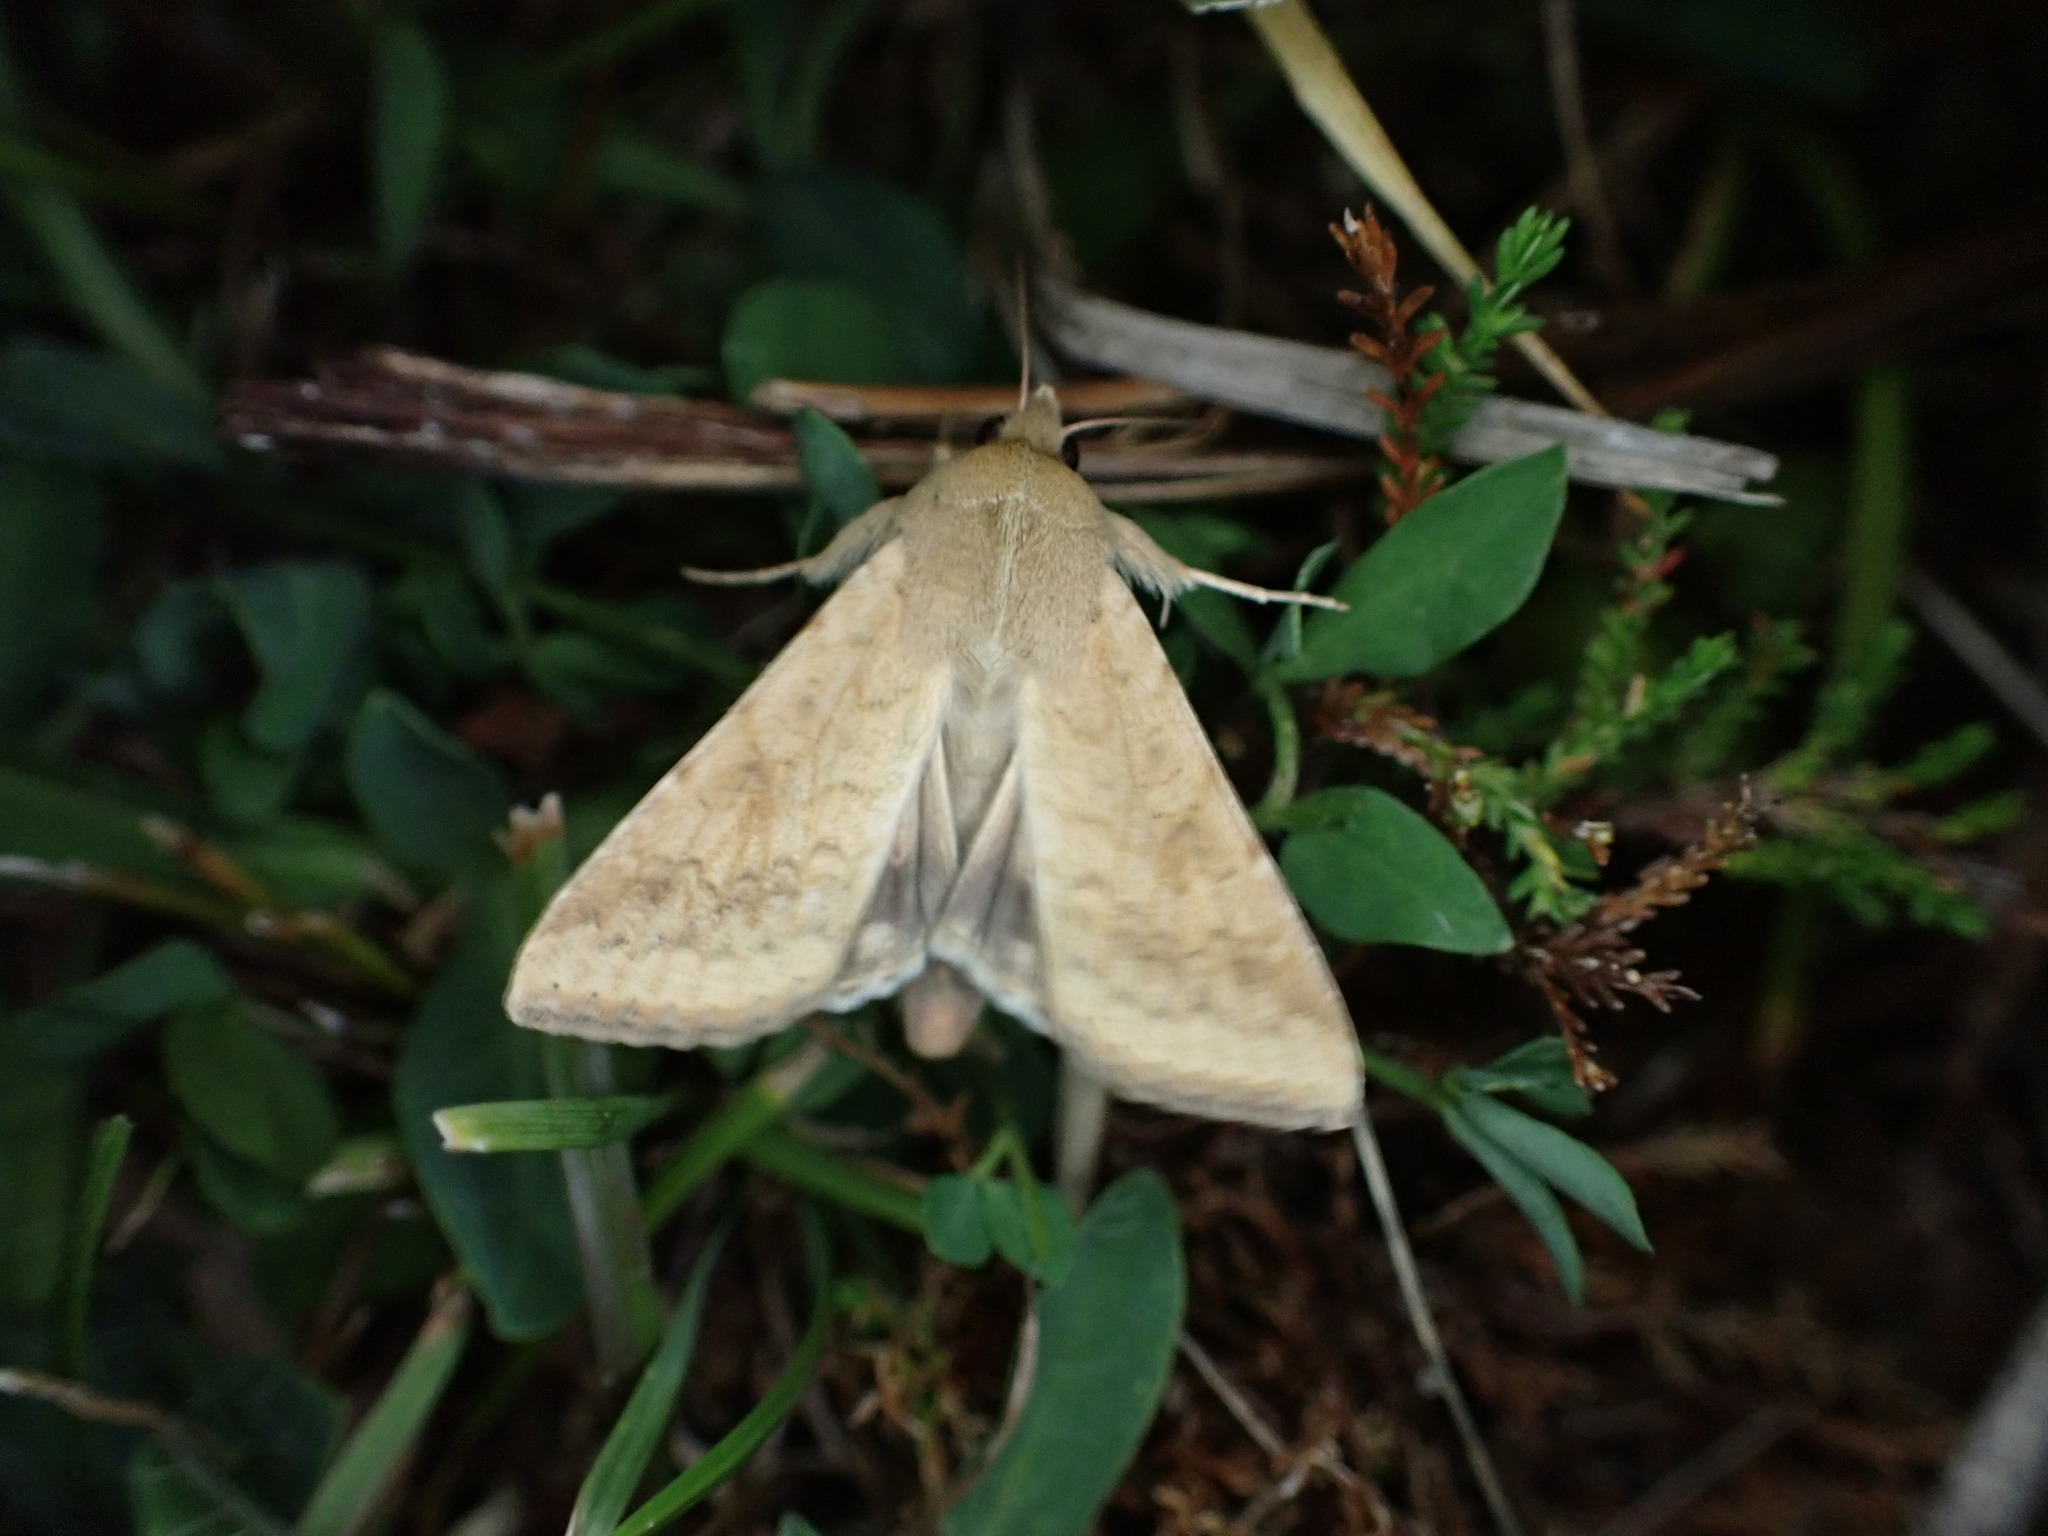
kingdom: Animalia
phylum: Arthropoda
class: Insecta
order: Lepidoptera
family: Noctuidae
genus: Helicoverpa
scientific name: Helicoverpa armigera
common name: Cotton bollworm
